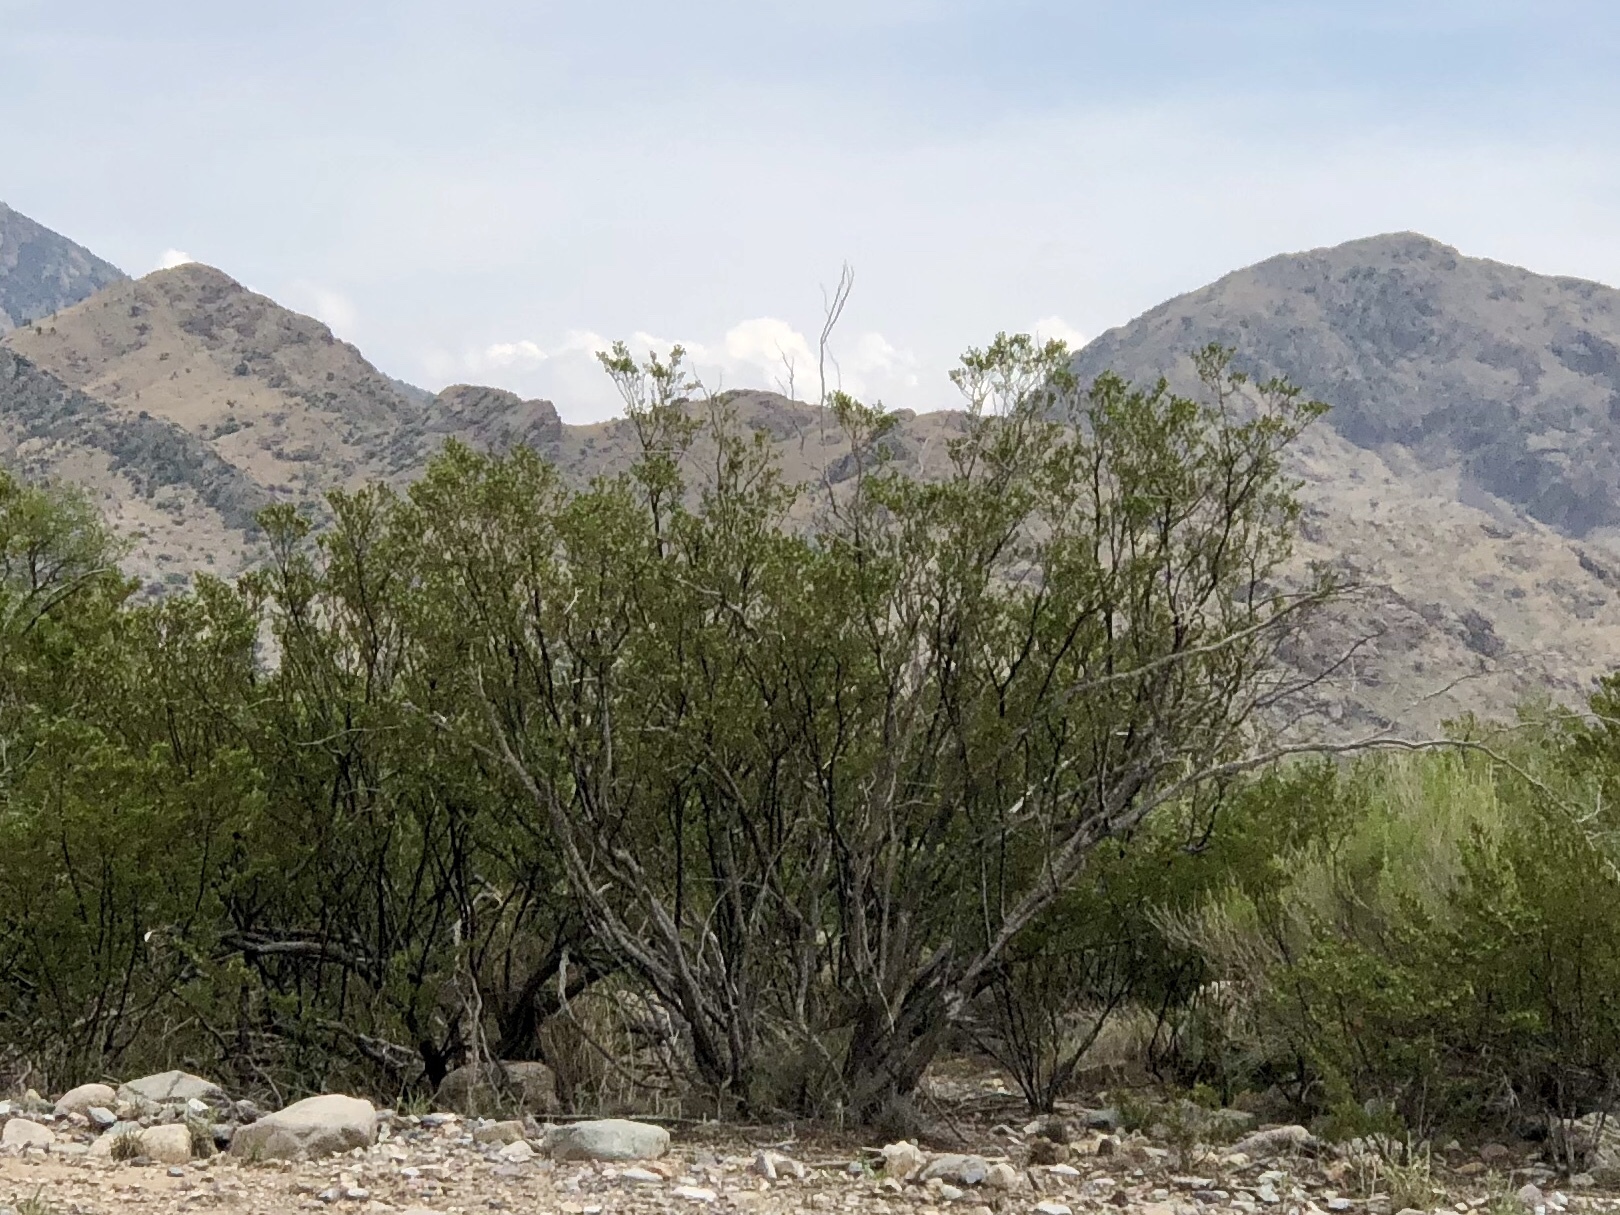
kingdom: Plantae
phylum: Tracheophyta
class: Magnoliopsida
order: Zygophyllales
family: Zygophyllaceae
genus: Larrea
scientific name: Larrea tridentata
